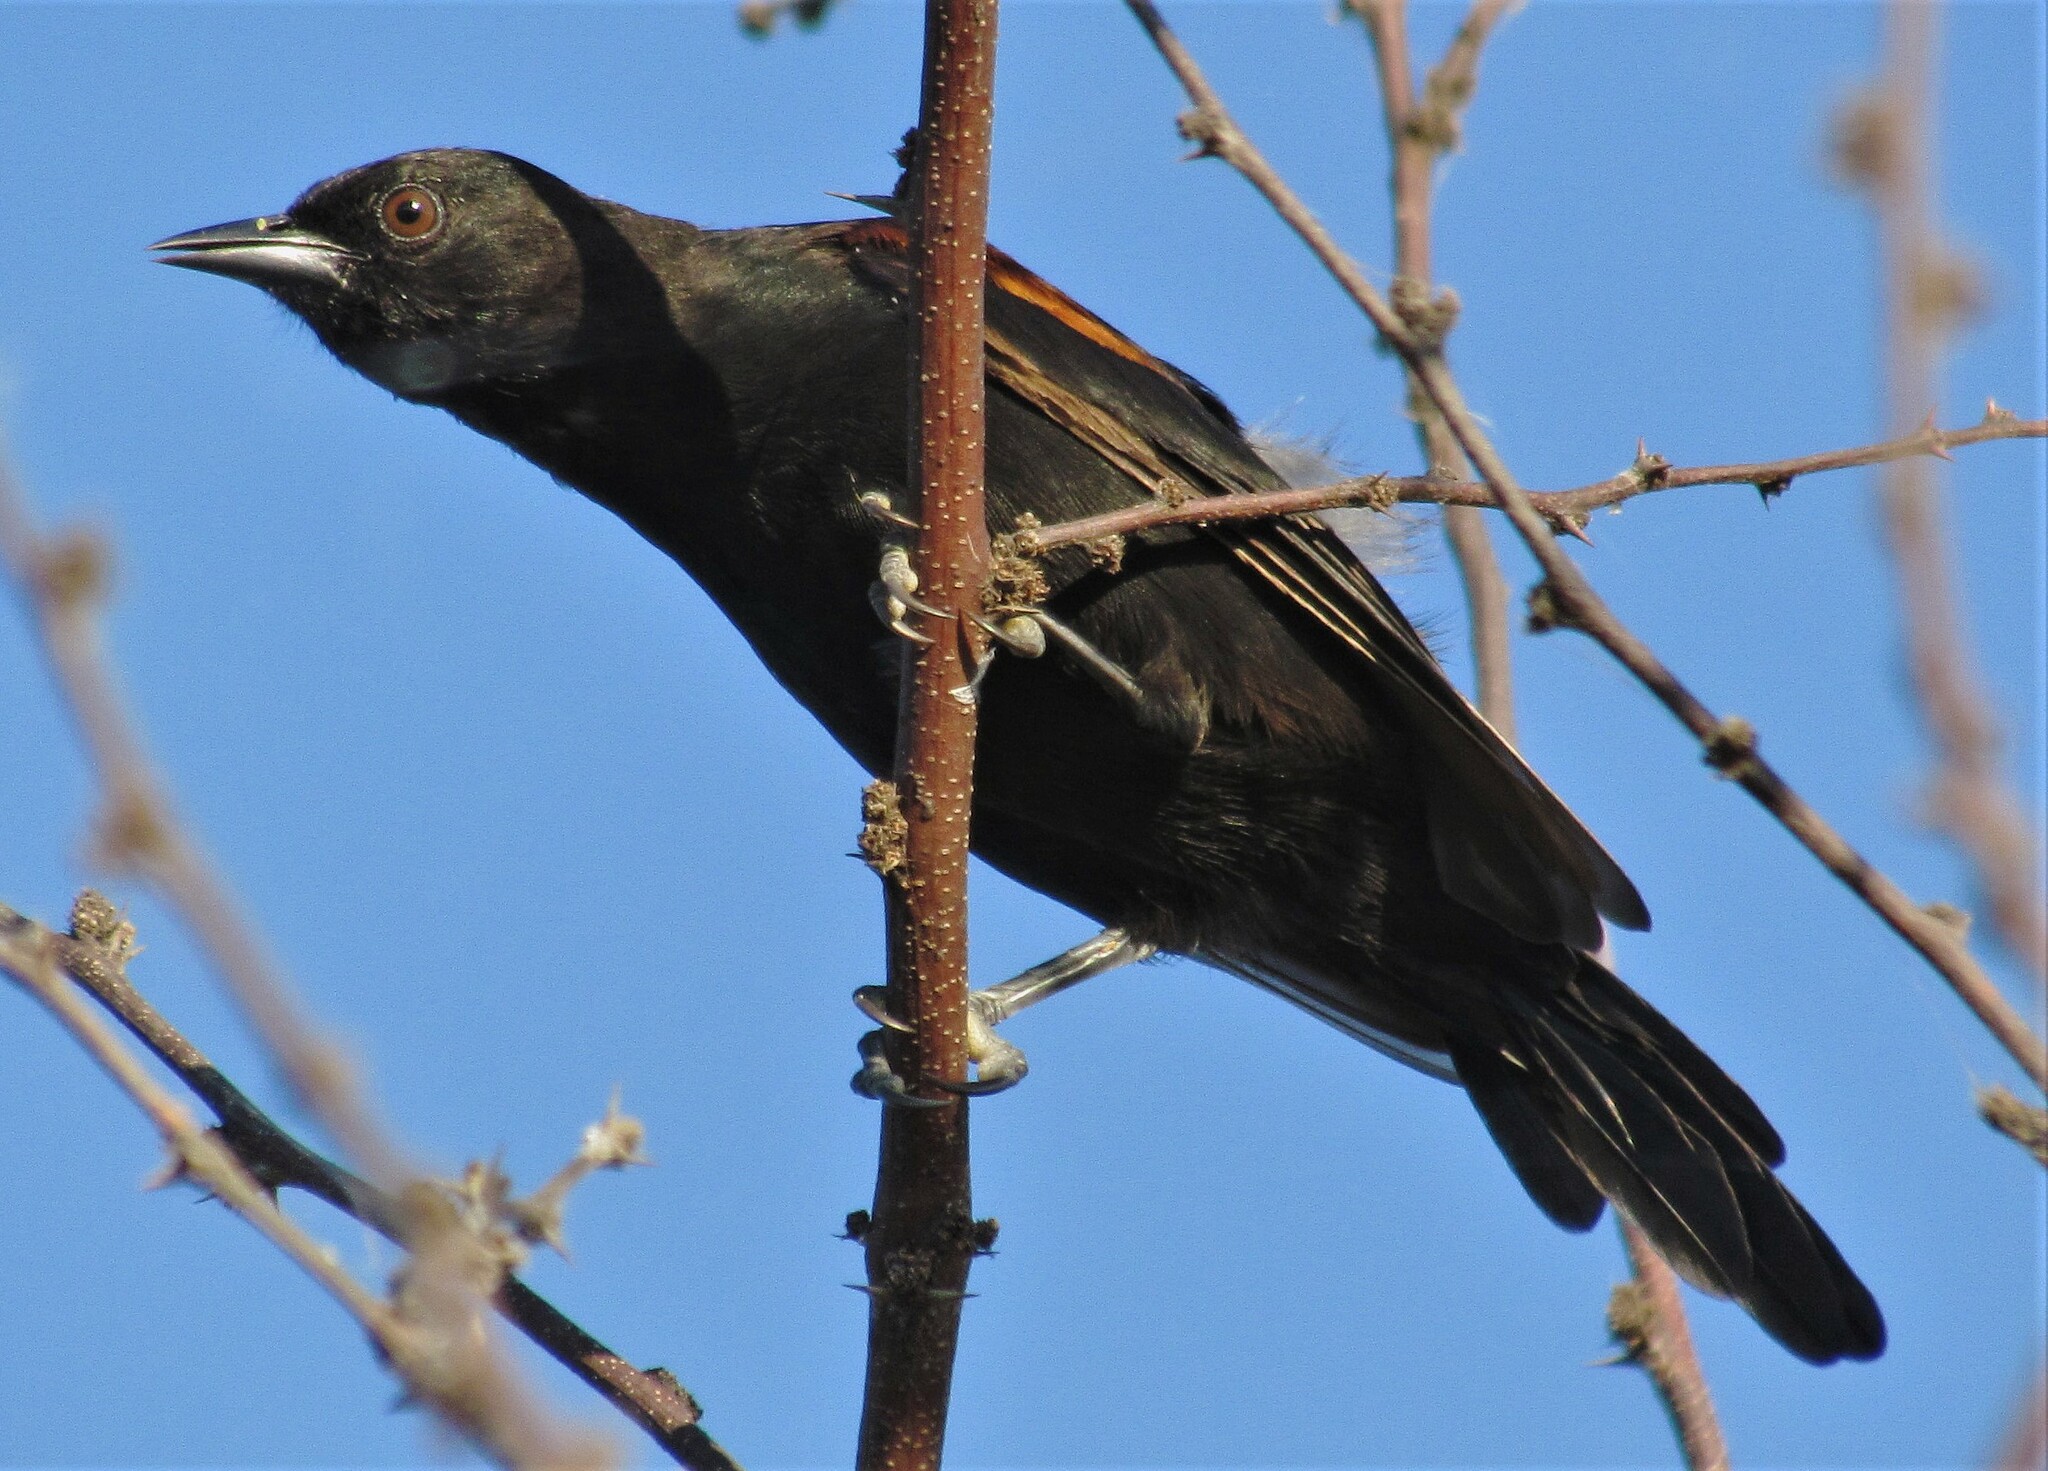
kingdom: Animalia
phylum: Chordata
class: Aves
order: Passeriformes
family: Icteridae
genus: Icterus
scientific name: Icterus cayanensis
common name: Epaulet oriole
